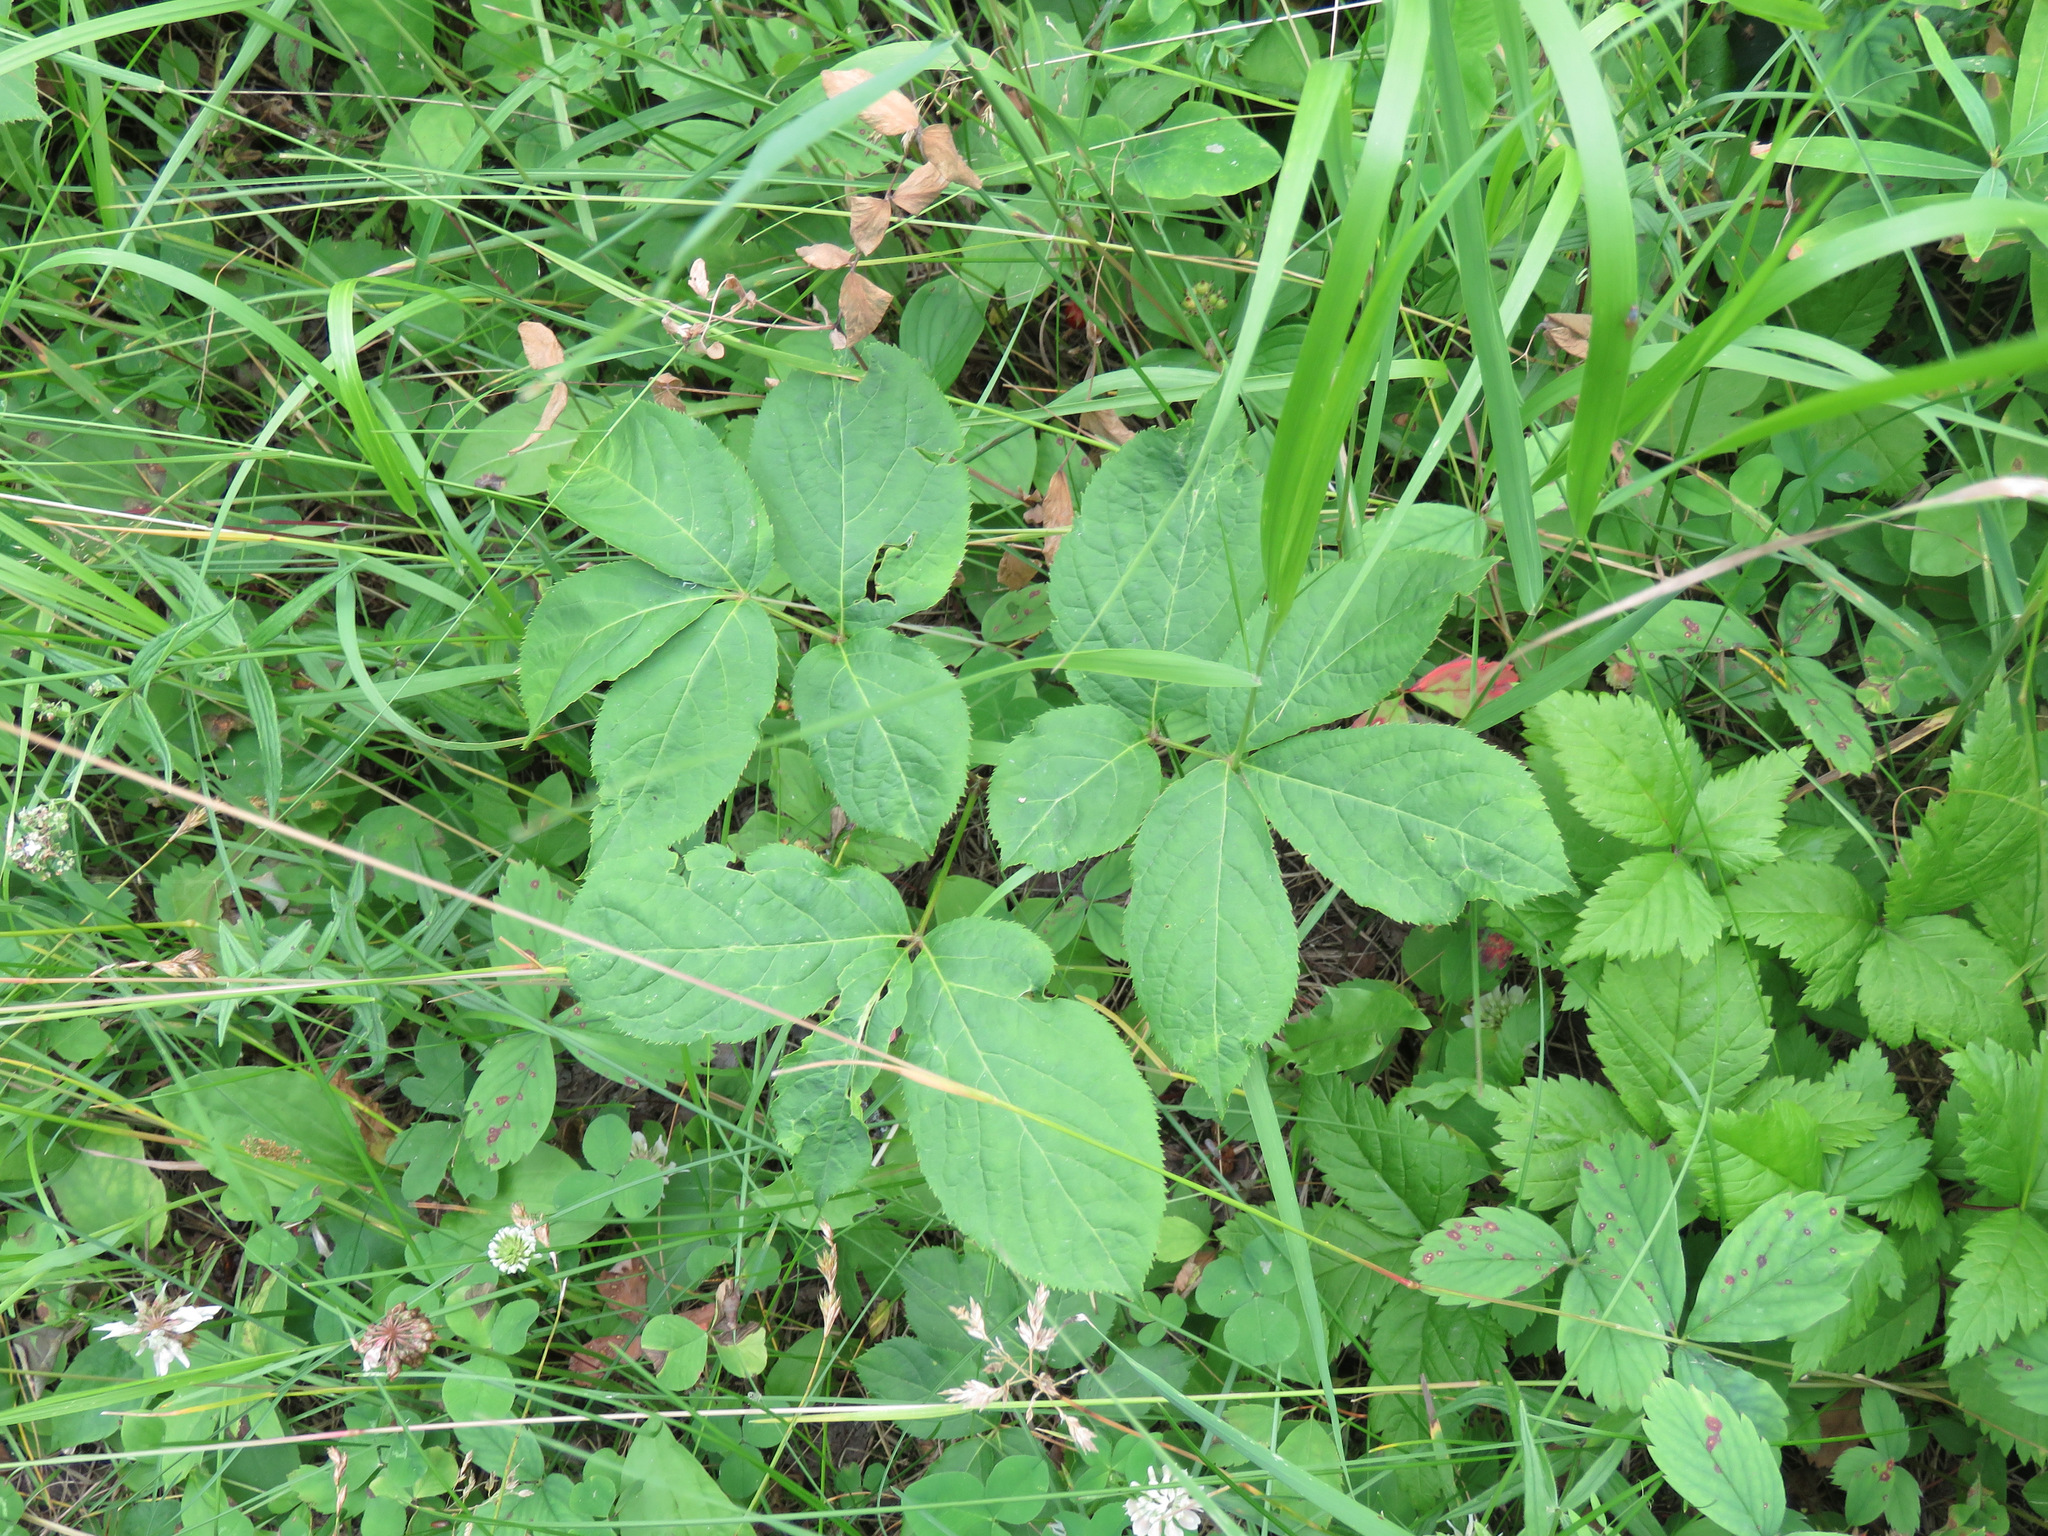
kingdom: Plantae
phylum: Tracheophyta
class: Magnoliopsida
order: Apiales
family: Araliaceae
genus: Aralia
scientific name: Aralia nudicaulis
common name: Wild sarsaparilla
